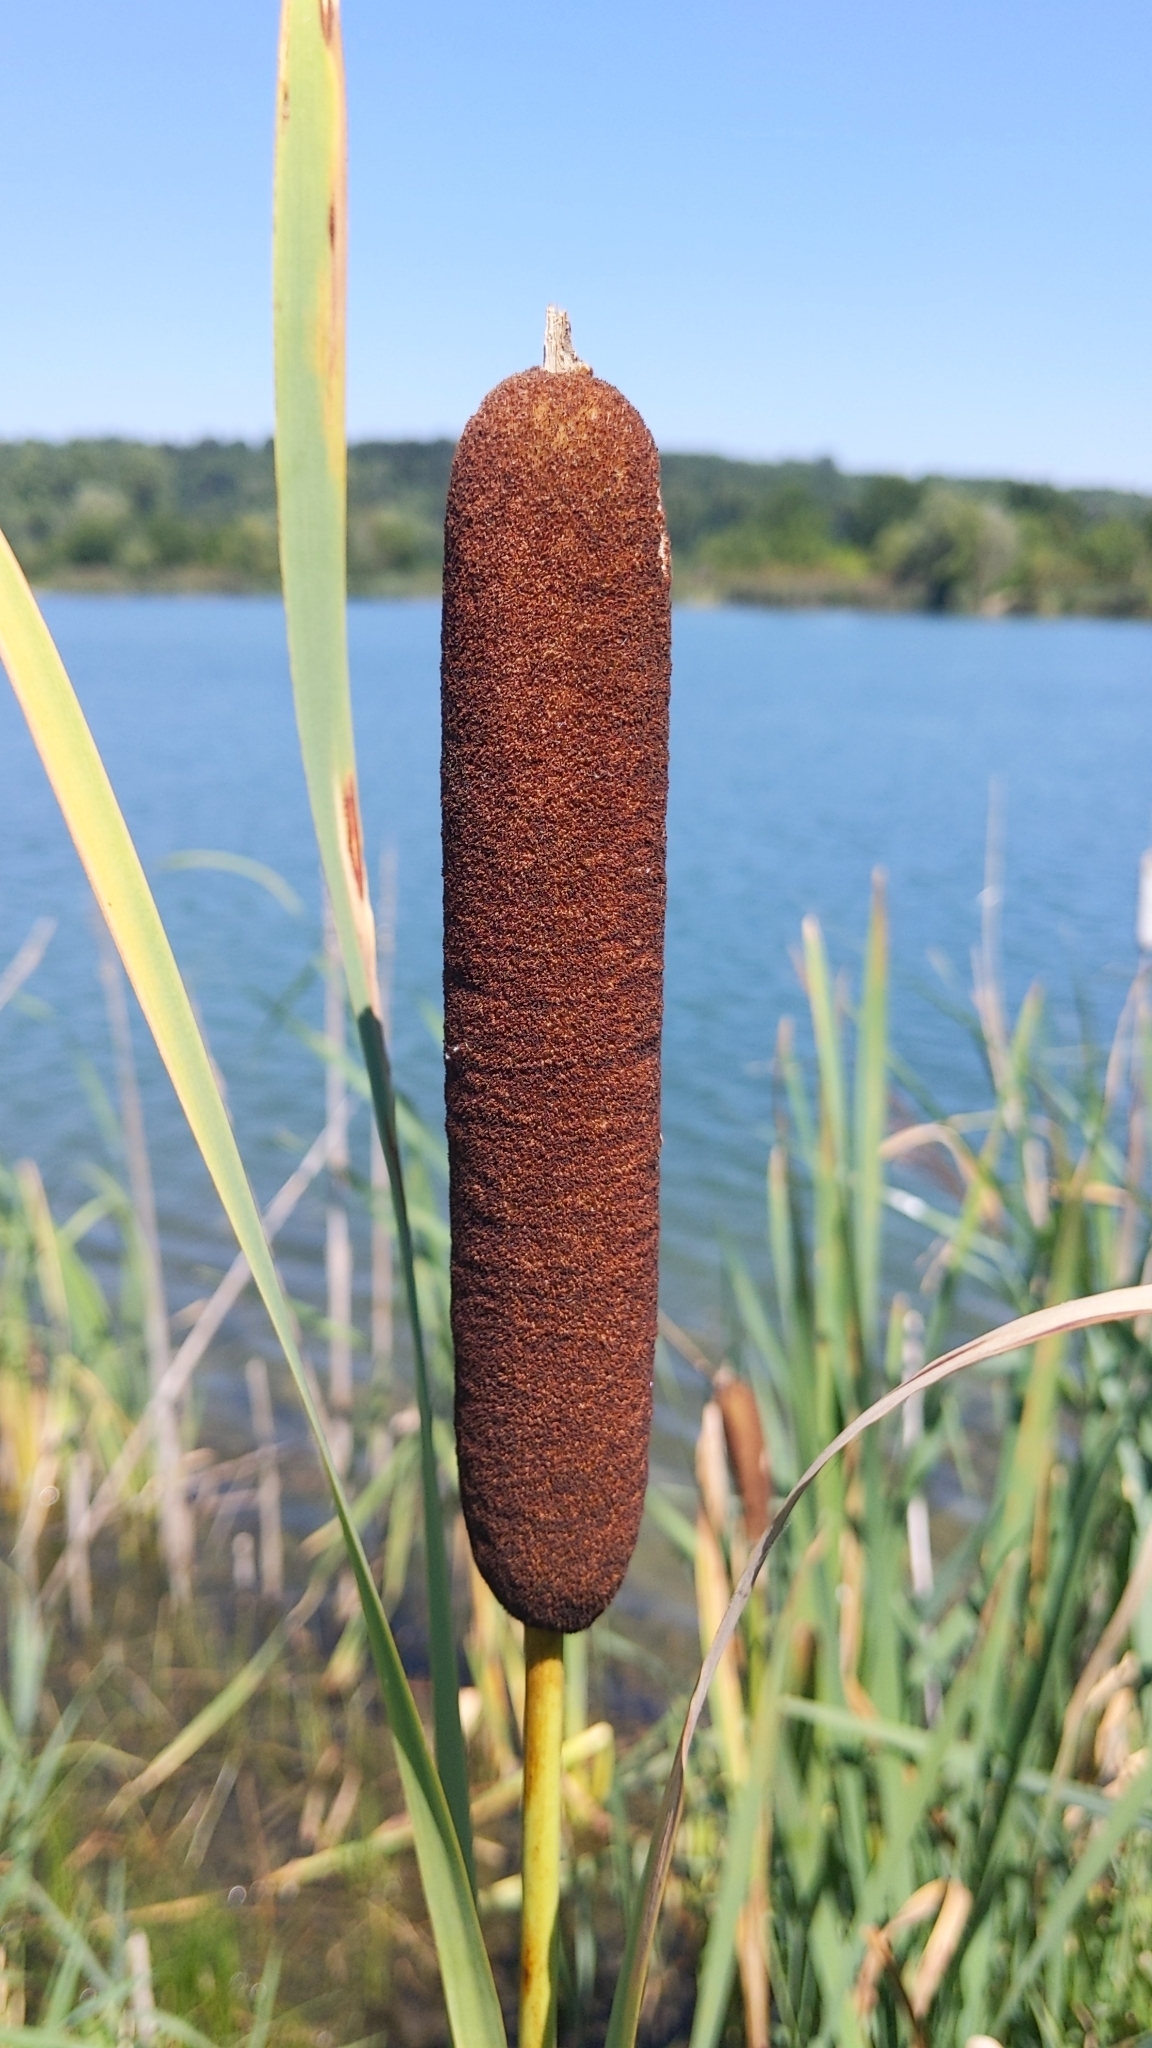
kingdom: Plantae
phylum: Tracheophyta
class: Liliopsida
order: Poales
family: Typhaceae
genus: Typha
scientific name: Typha latifolia
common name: Broadleaf cattail
